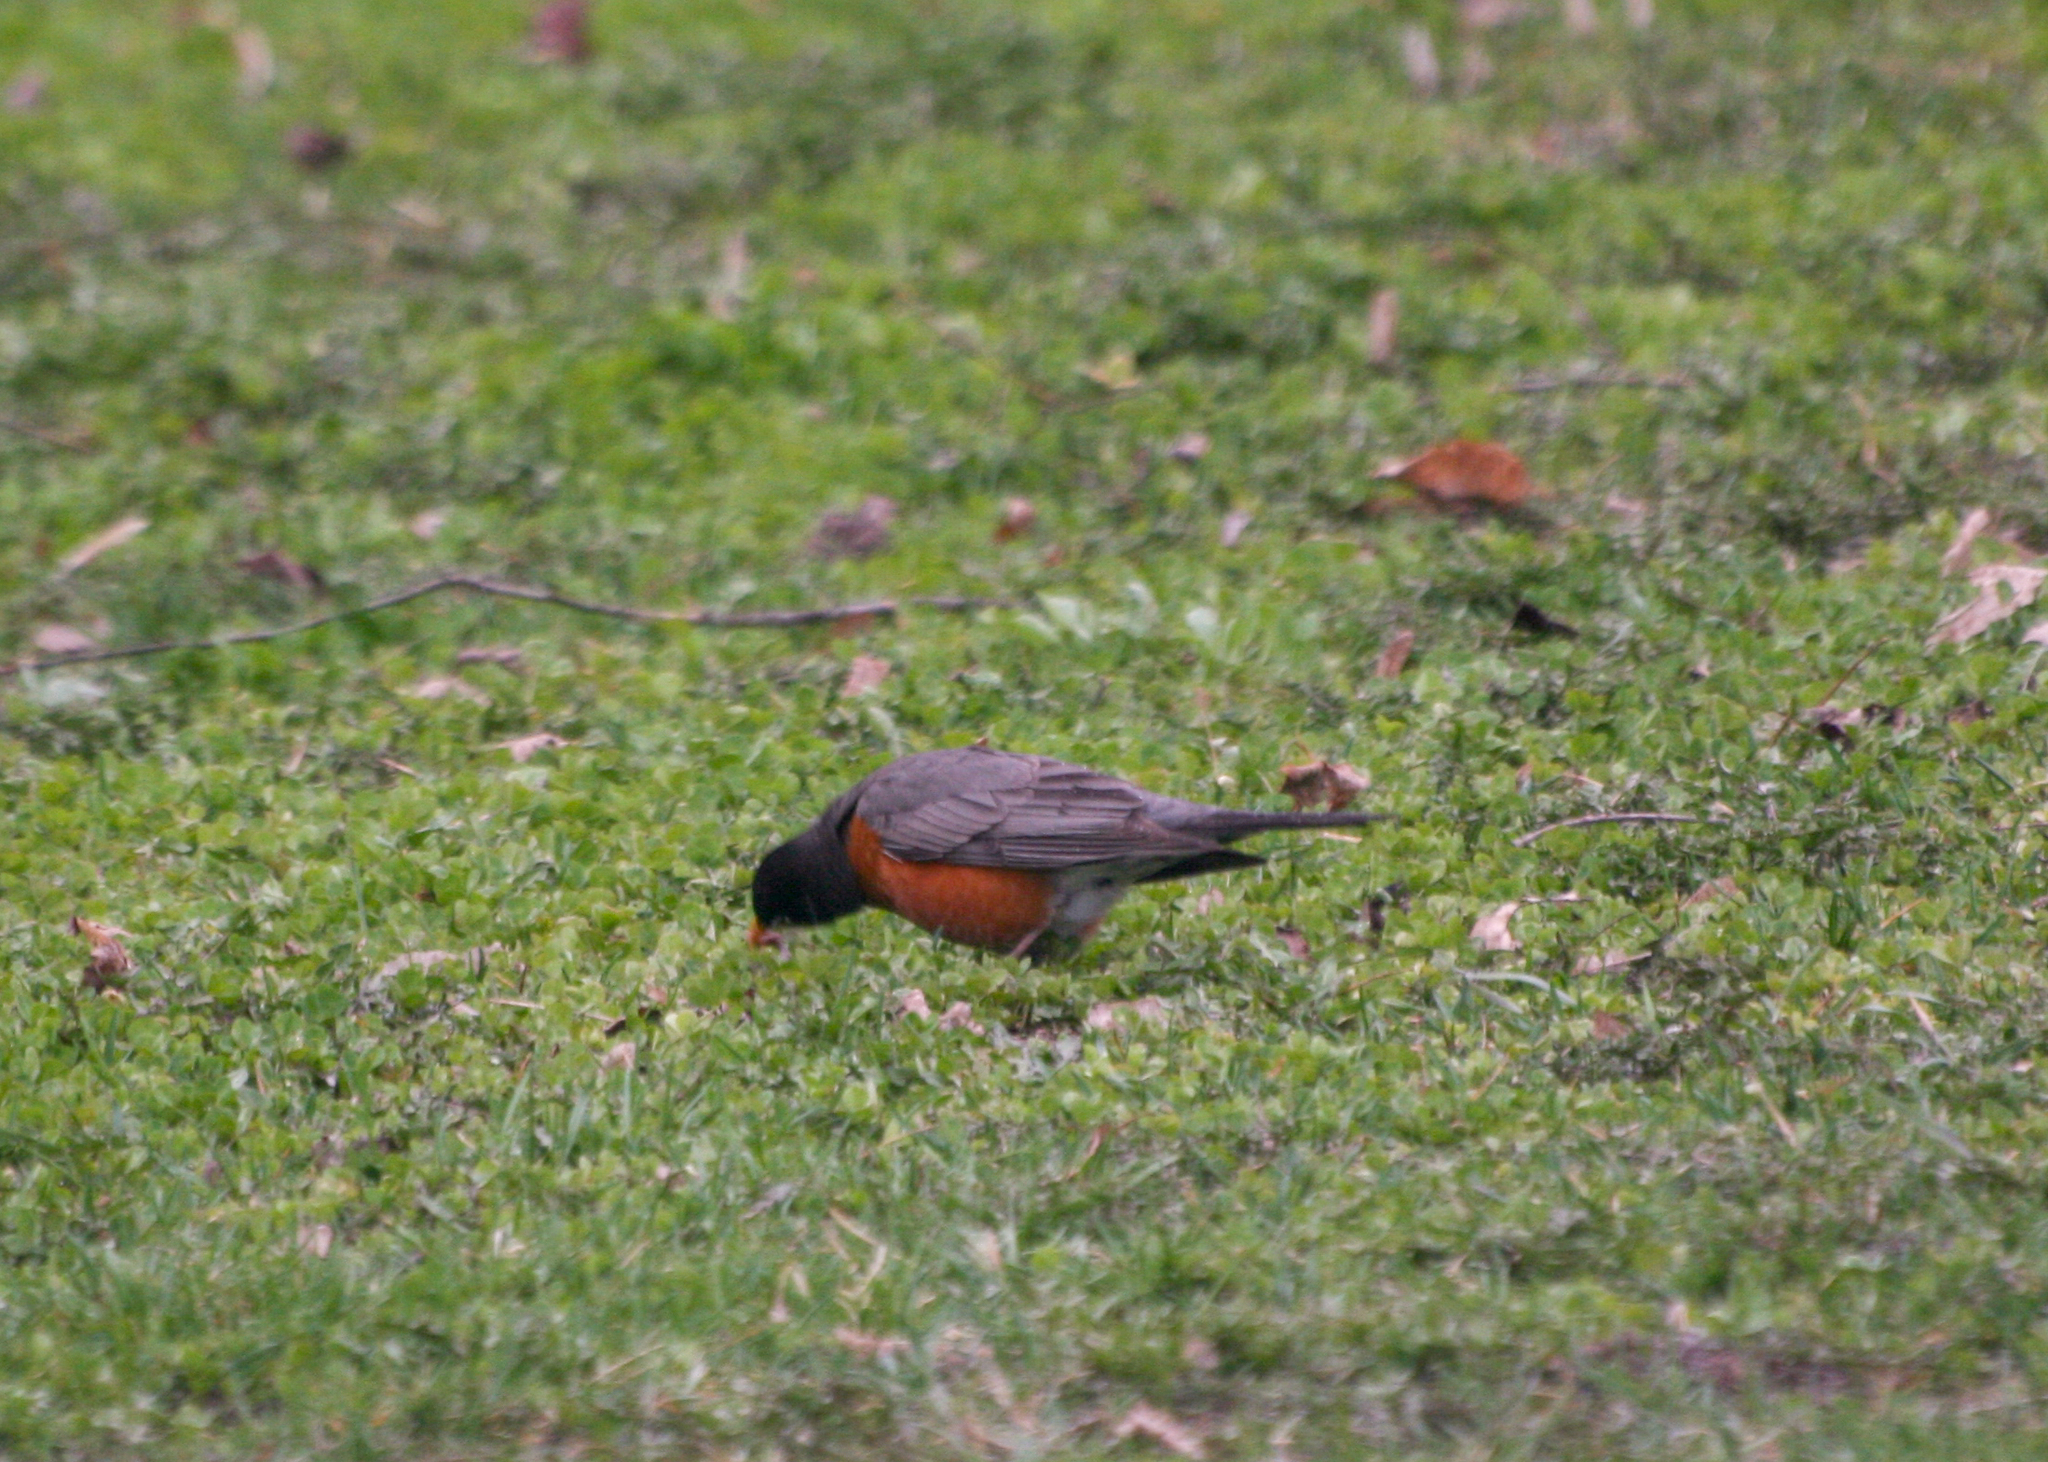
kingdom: Animalia
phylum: Chordata
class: Aves
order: Passeriformes
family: Turdidae
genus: Turdus
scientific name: Turdus migratorius
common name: American robin
